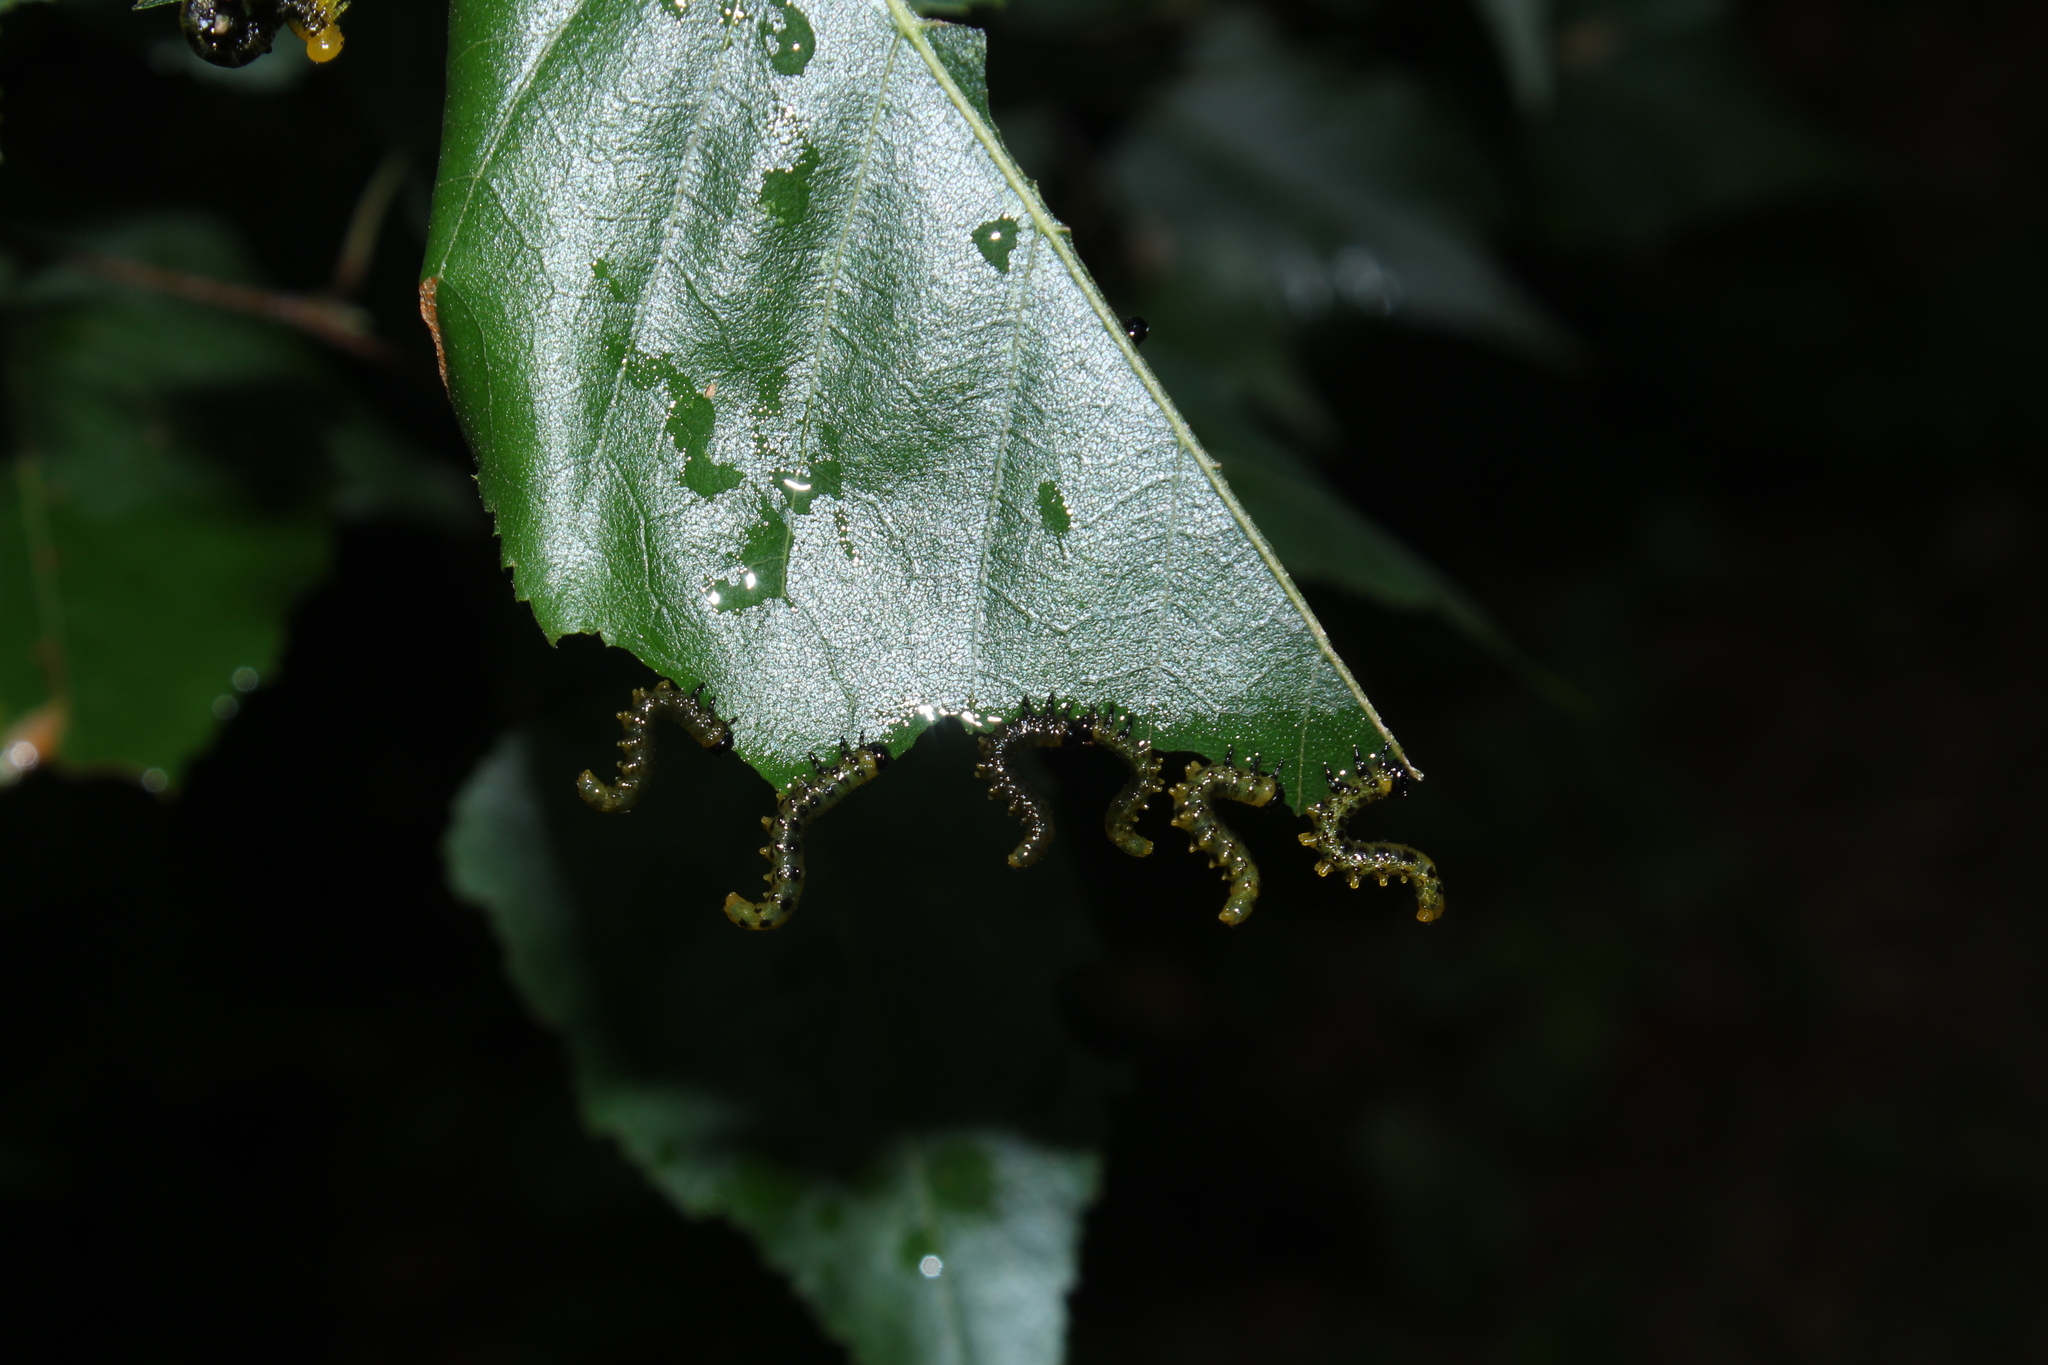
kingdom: Animalia
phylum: Arthropoda
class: Insecta
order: Hymenoptera
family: Tenthredinidae
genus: Nematus
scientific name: Nematus
